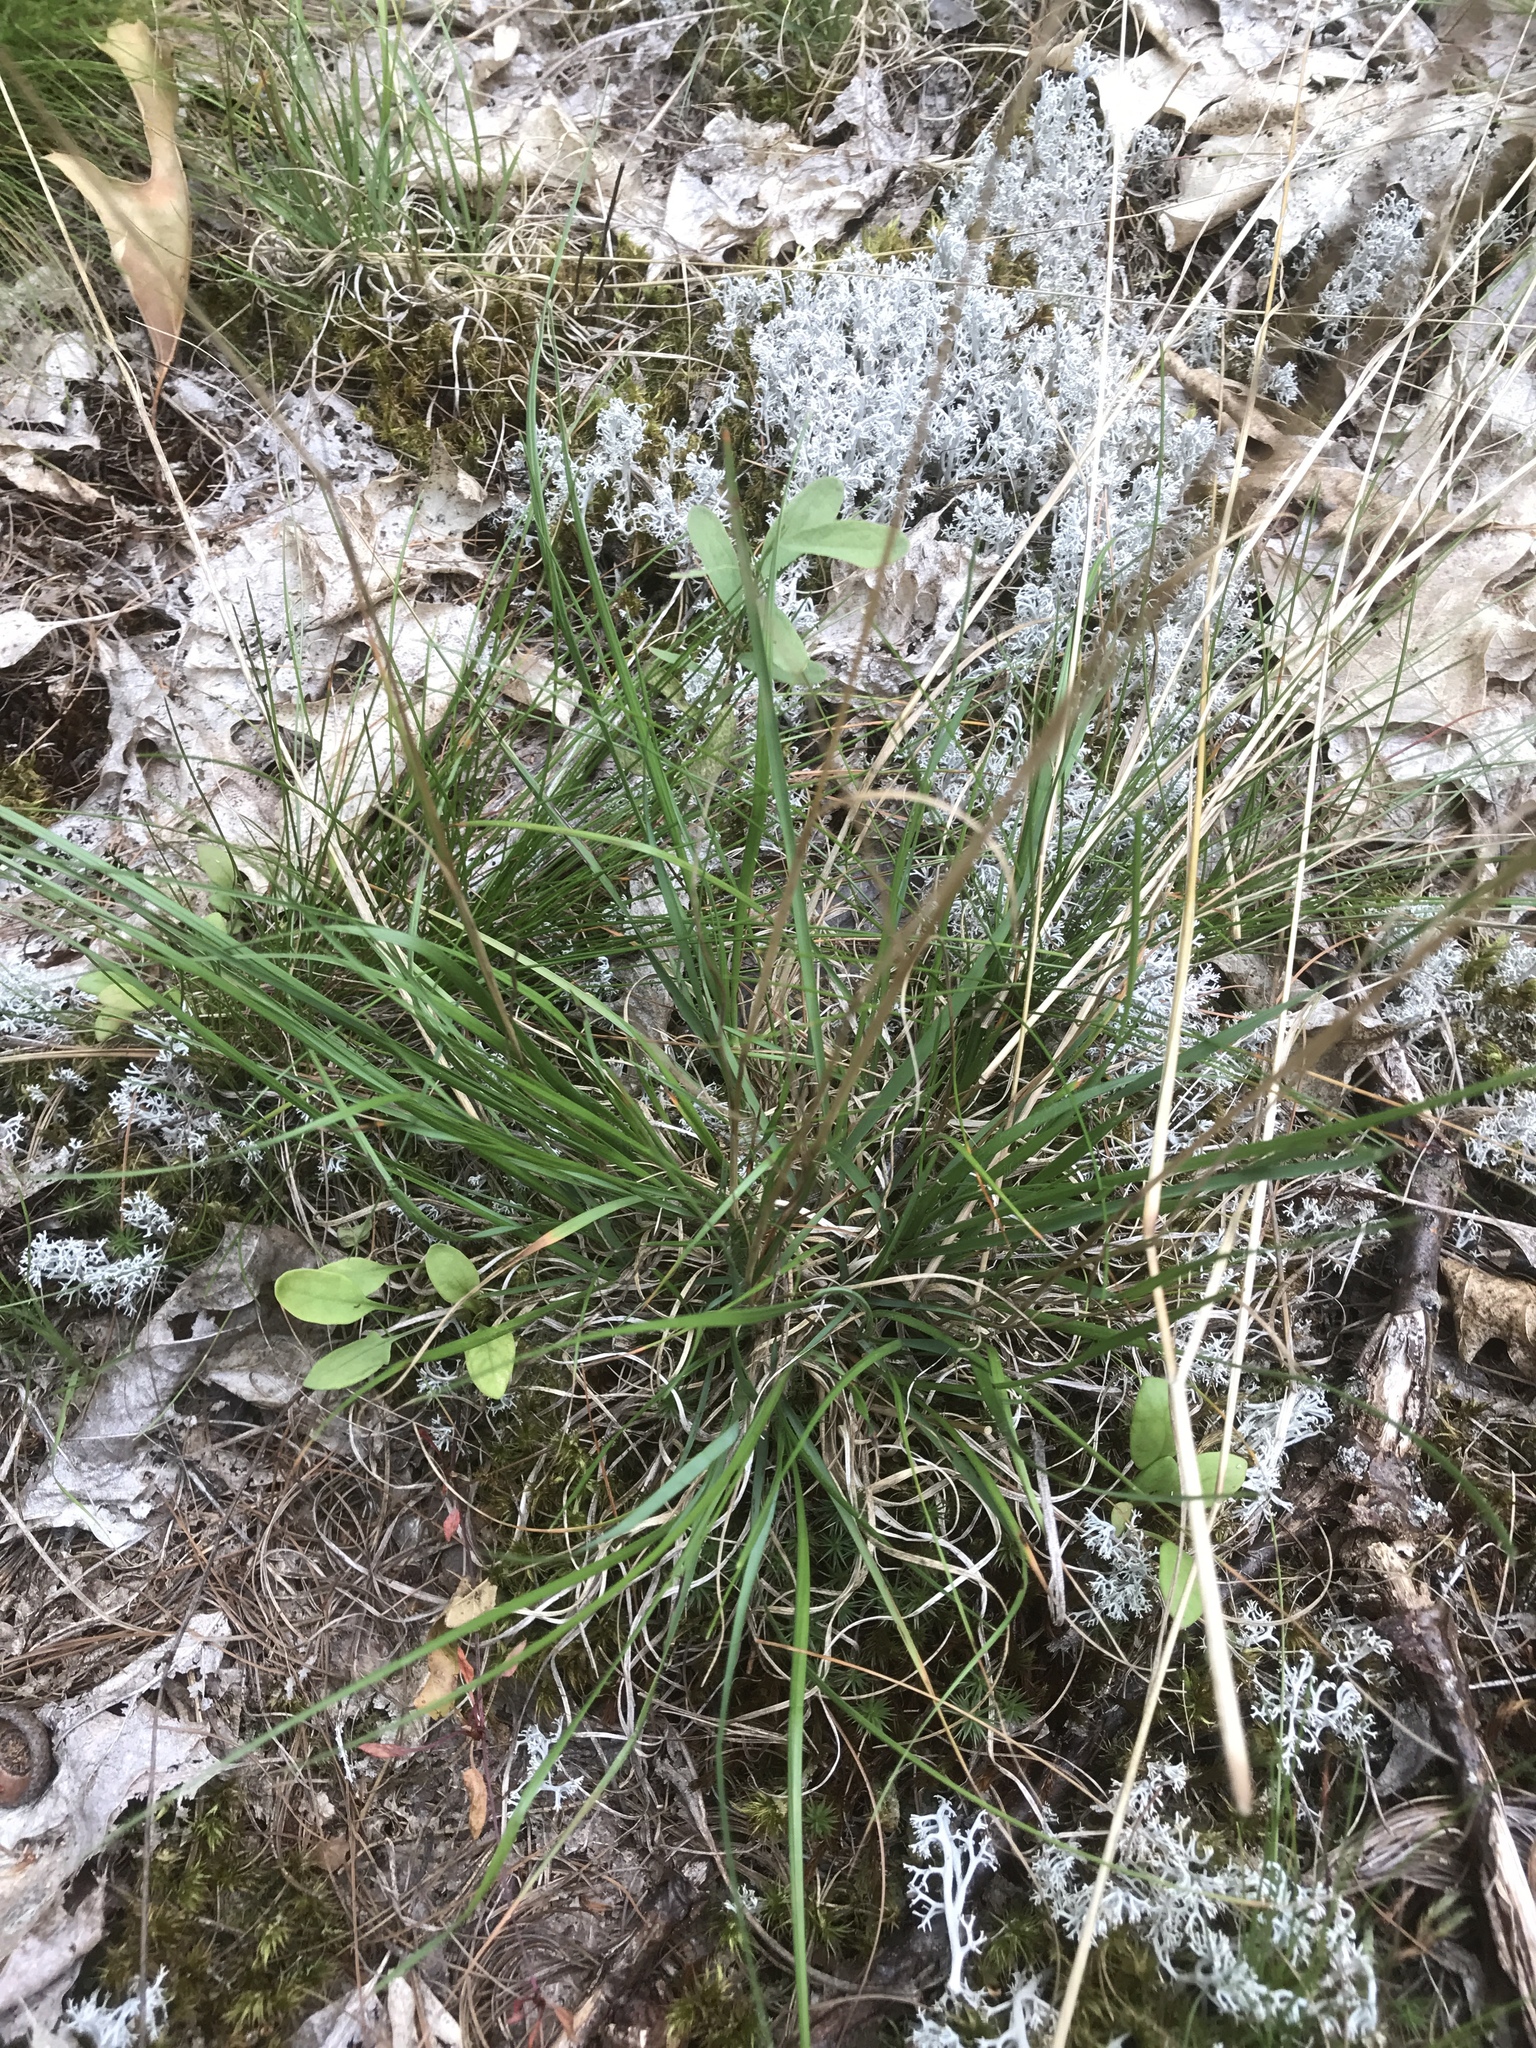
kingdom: Plantae
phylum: Tracheophyta
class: Liliopsida
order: Poales
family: Poaceae
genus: Danthonia
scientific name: Danthonia spicata
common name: Common wild oatgrass
